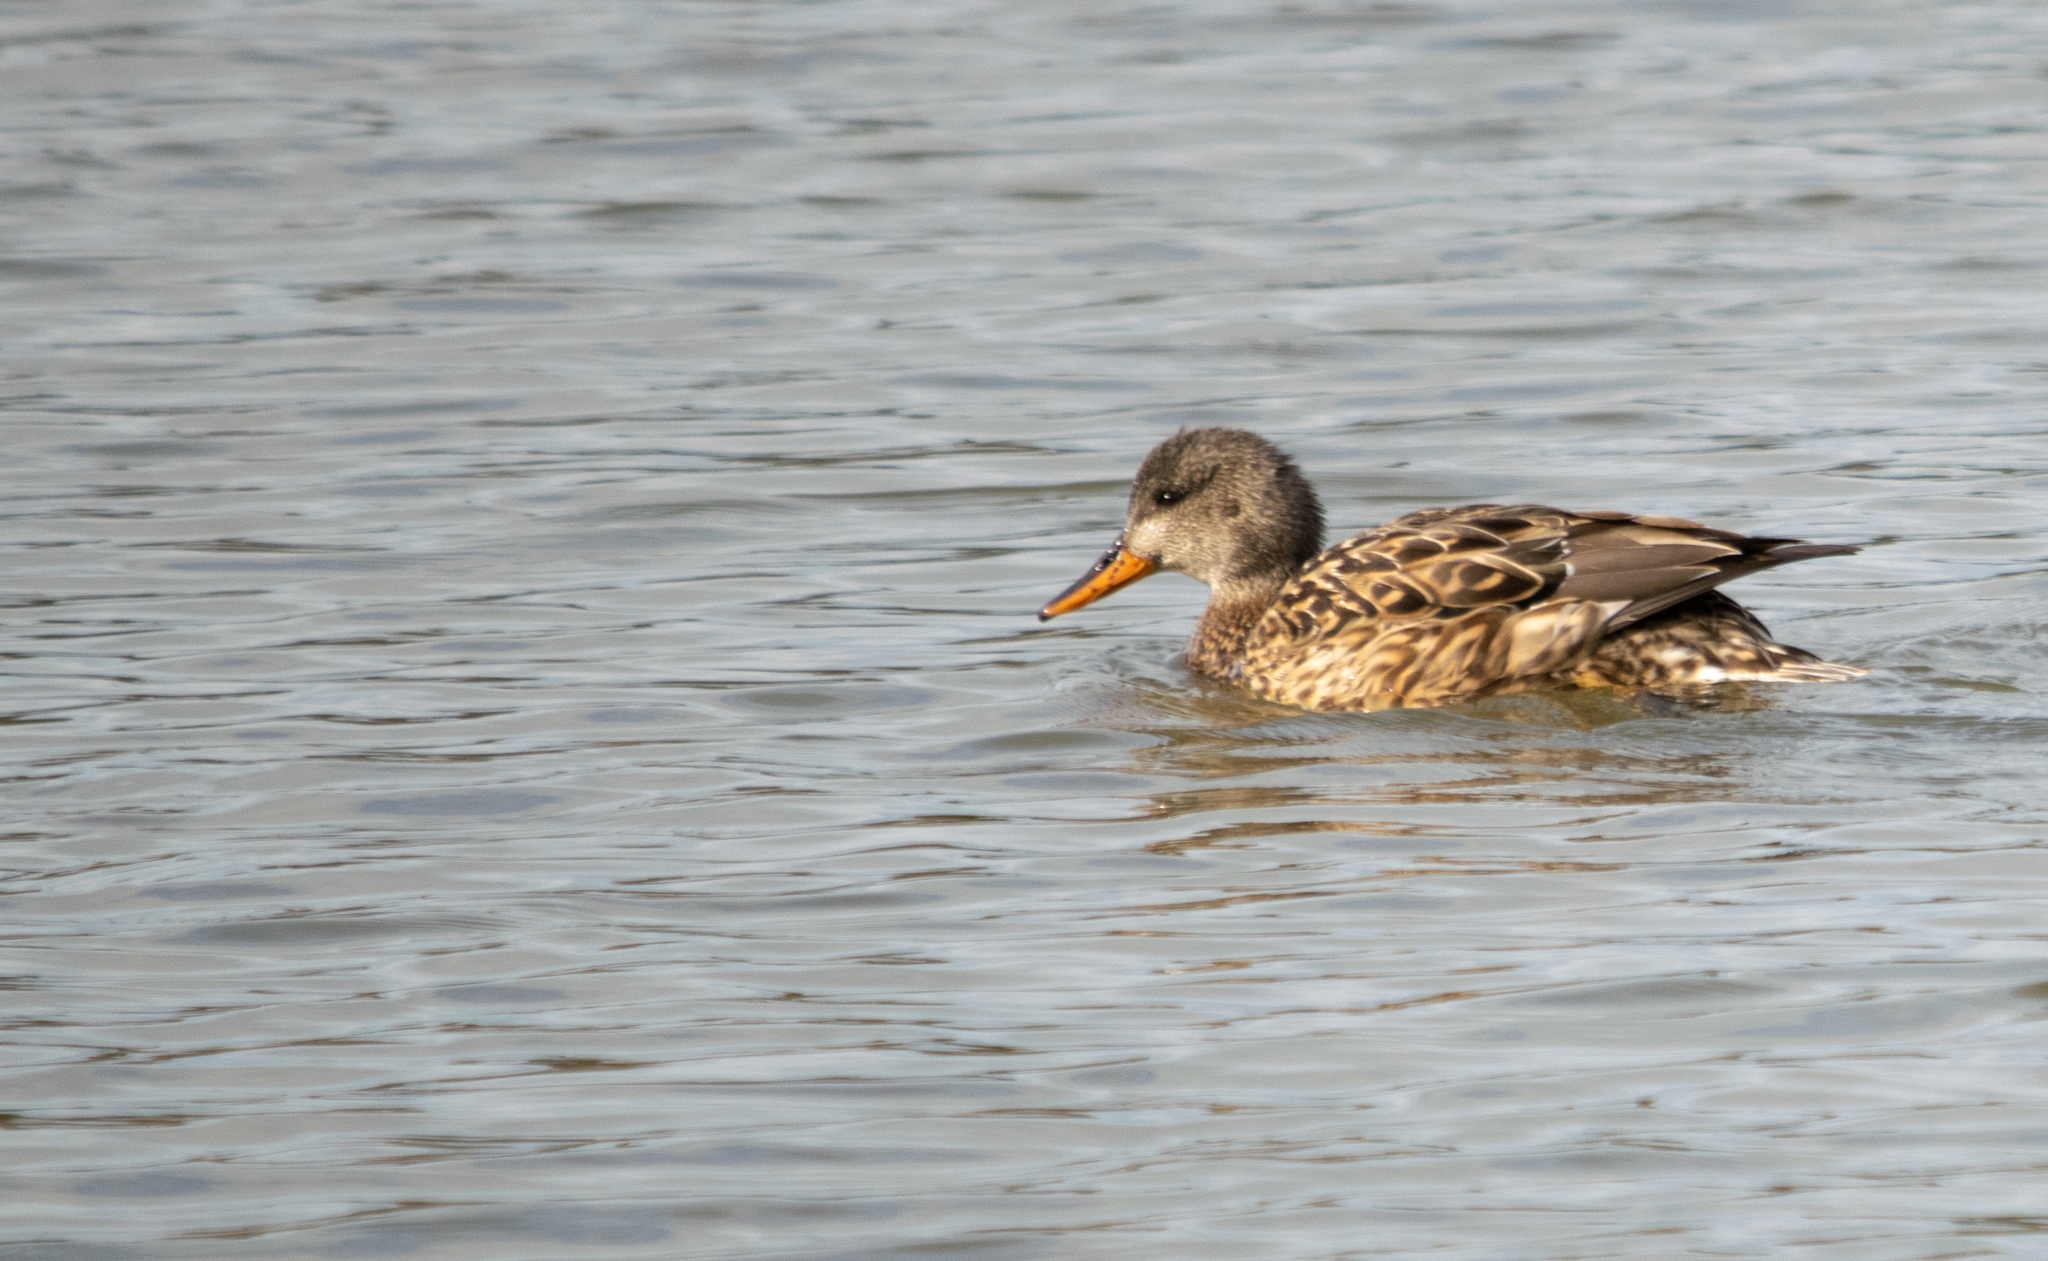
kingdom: Animalia
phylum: Chordata
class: Aves
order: Anseriformes
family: Anatidae
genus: Mareca
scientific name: Mareca strepera
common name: Gadwall
